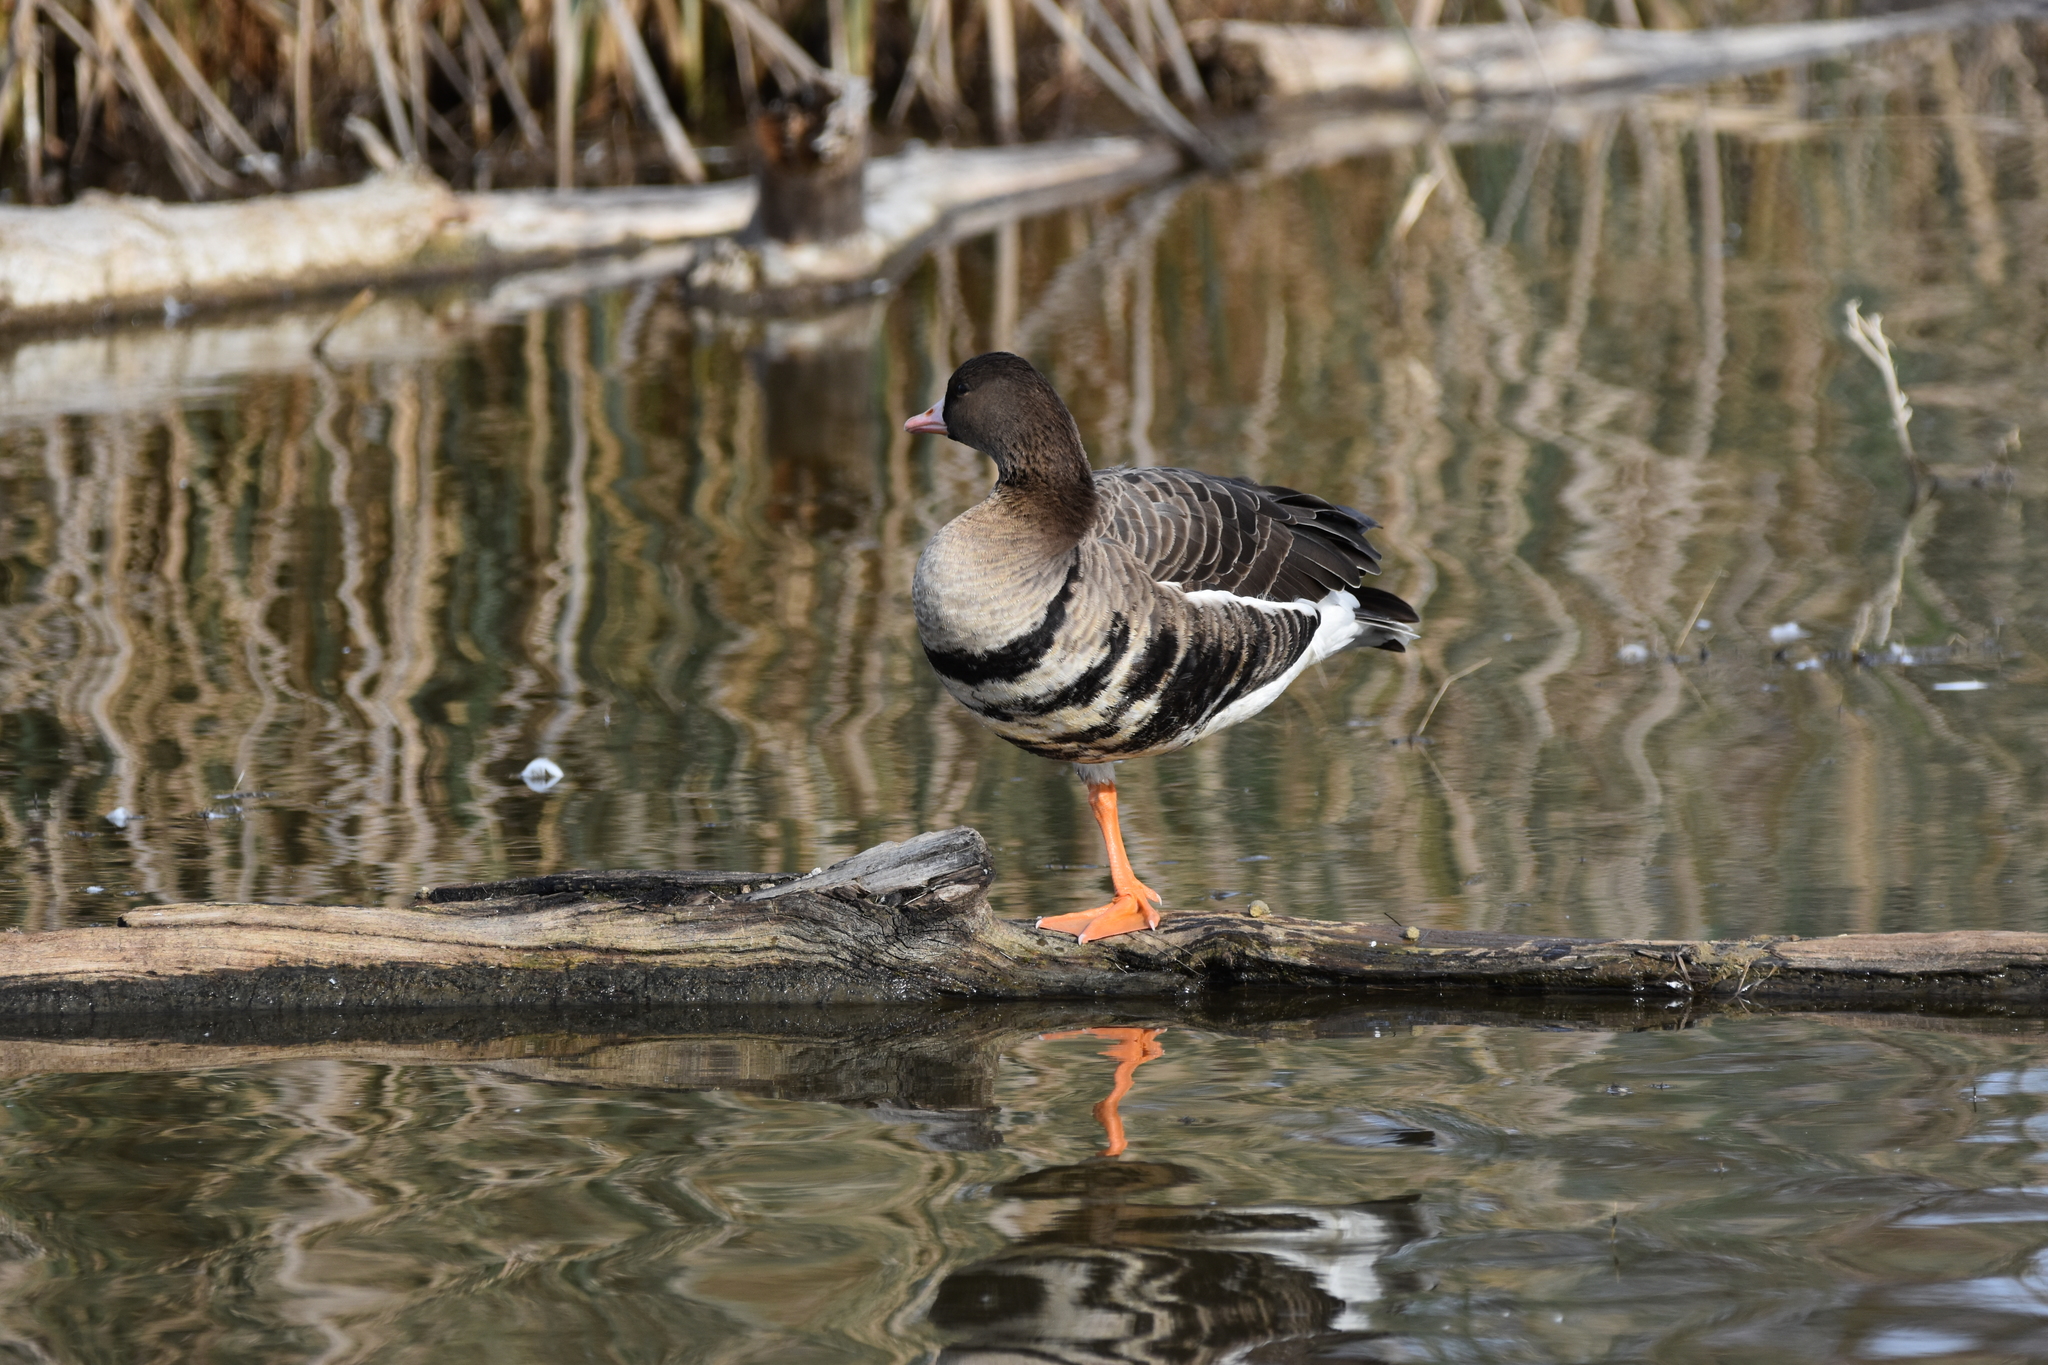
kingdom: Animalia
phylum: Chordata
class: Aves
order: Anseriformes
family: Anatidae
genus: Anser
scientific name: Anser albifrons
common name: Greater white-fronted goose
